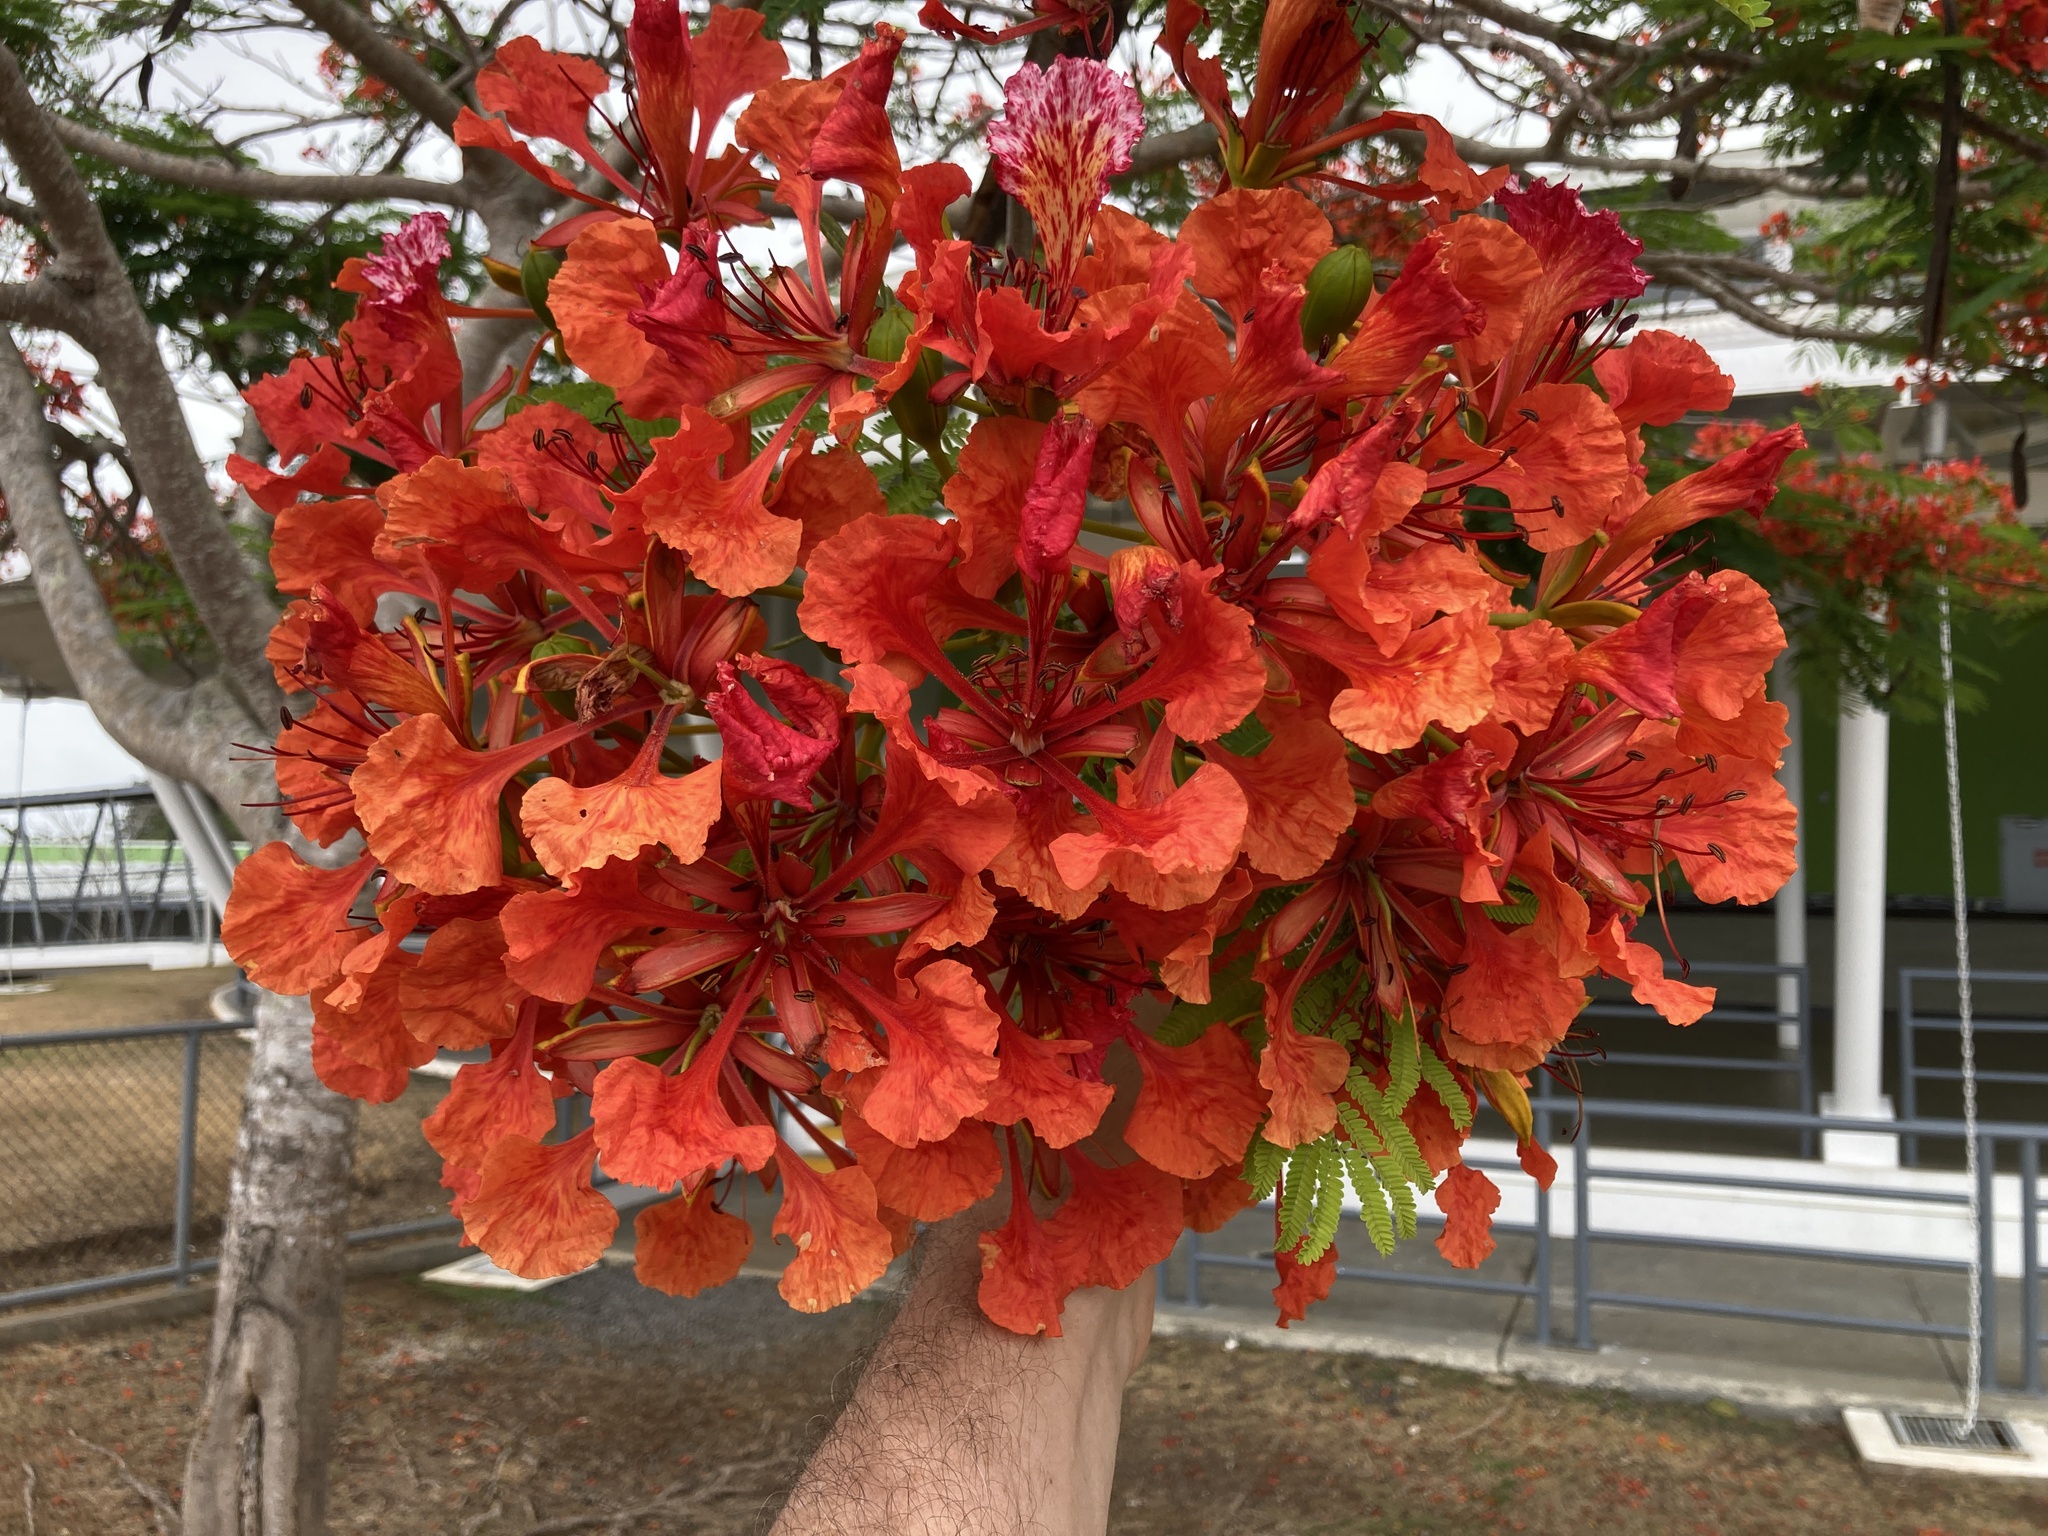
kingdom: Plantae
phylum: Tracheophyta
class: Magnoliopsida
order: Fabales
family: Fabaceae
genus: Delonix
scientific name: Delonix regia
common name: Royal poinciana
